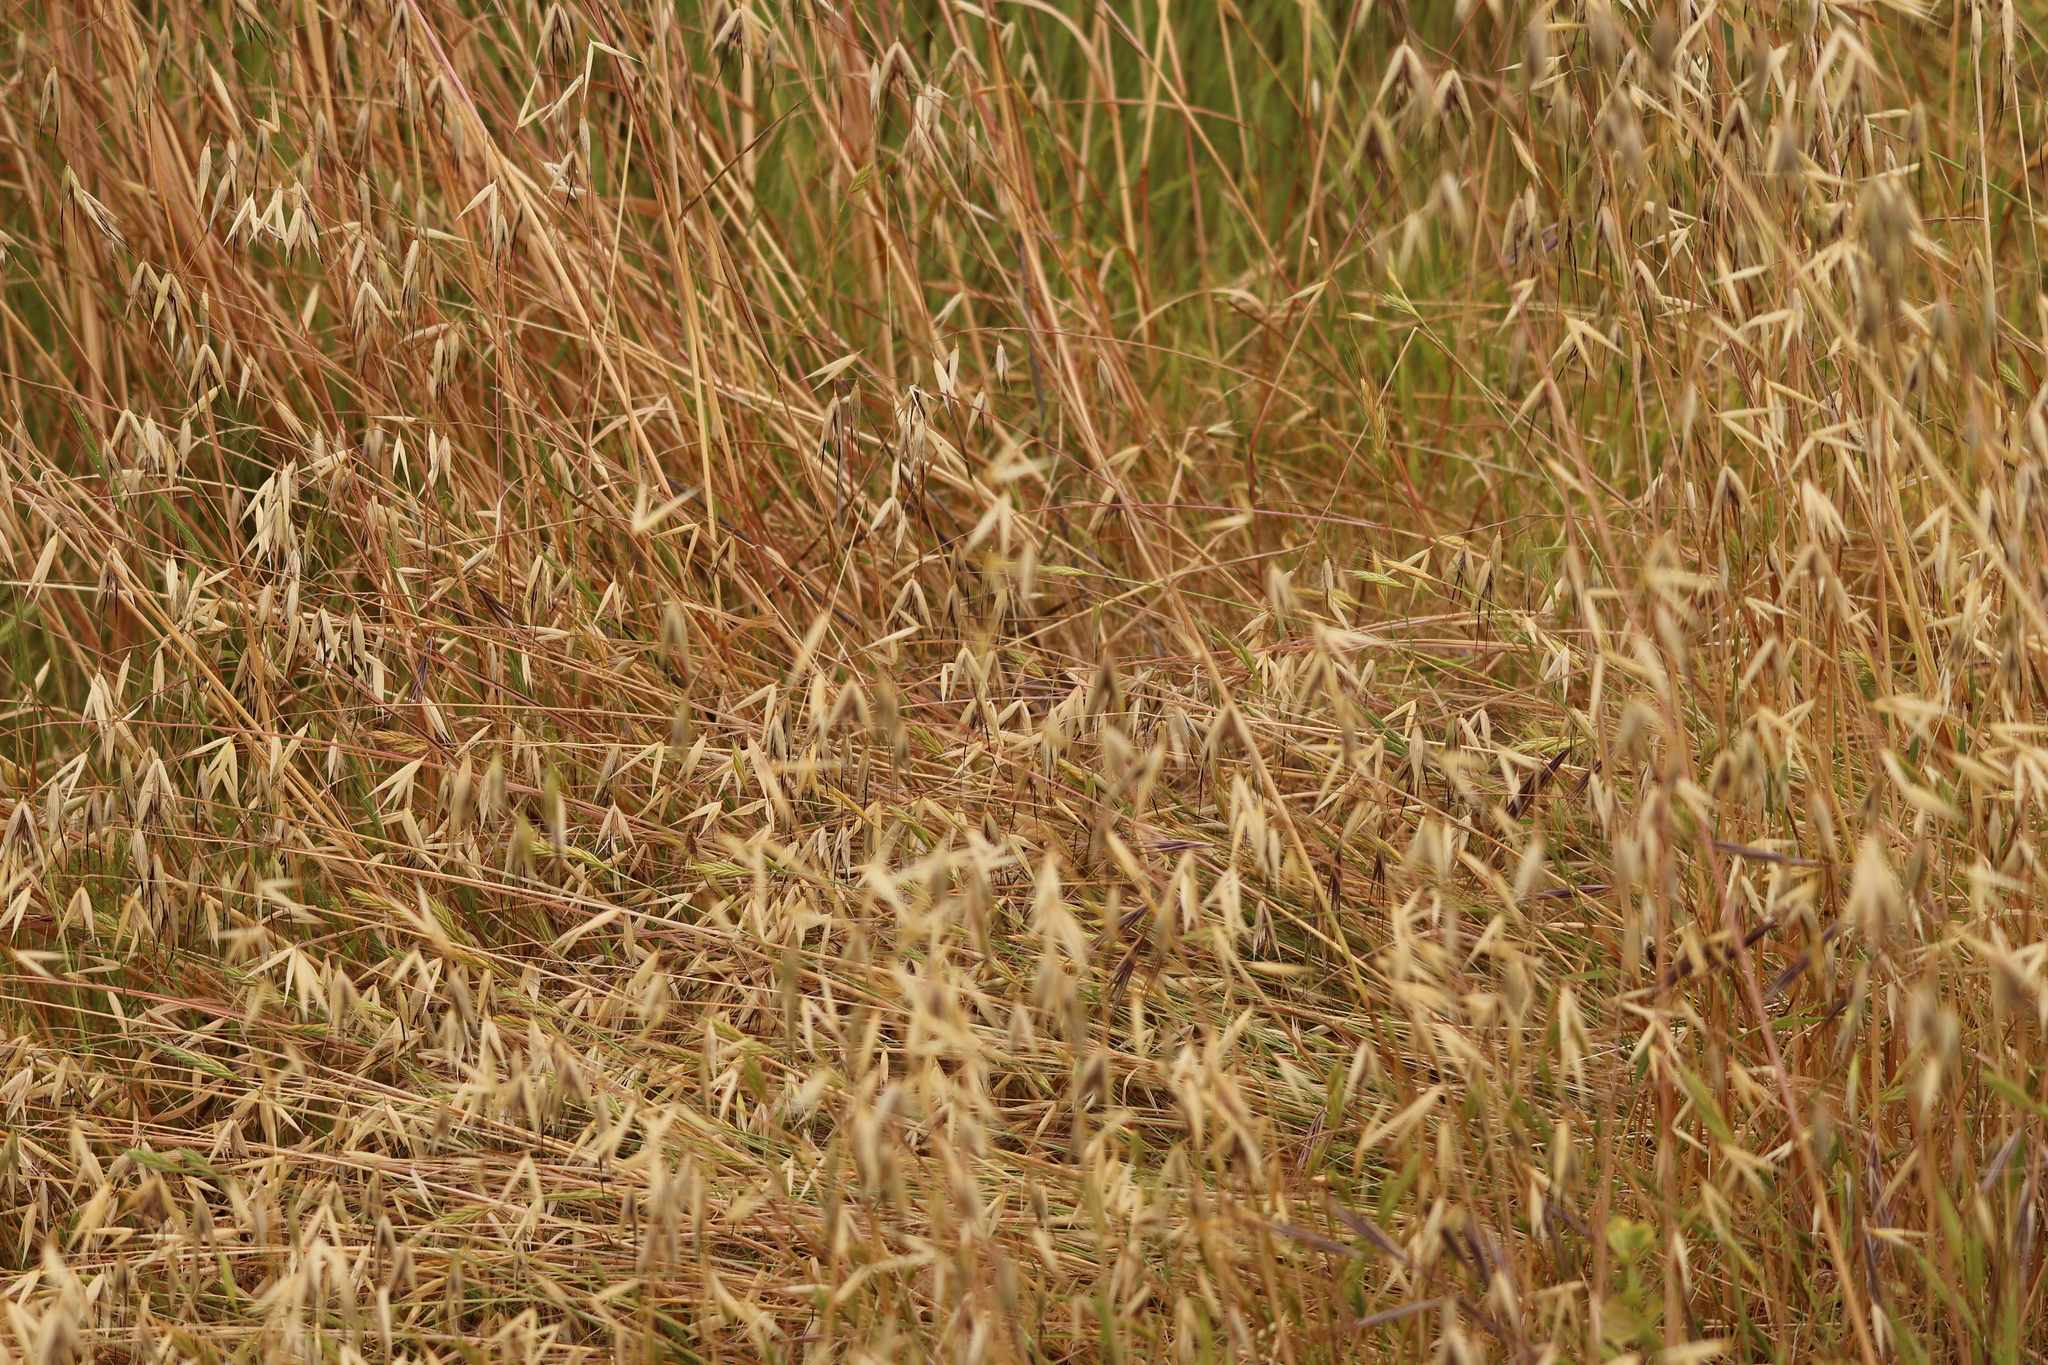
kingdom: Plantae
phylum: Tracheophyta
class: Liliopsida
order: Poales
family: Poaceae
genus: Avena
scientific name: Avena fatua
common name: Wild oat
